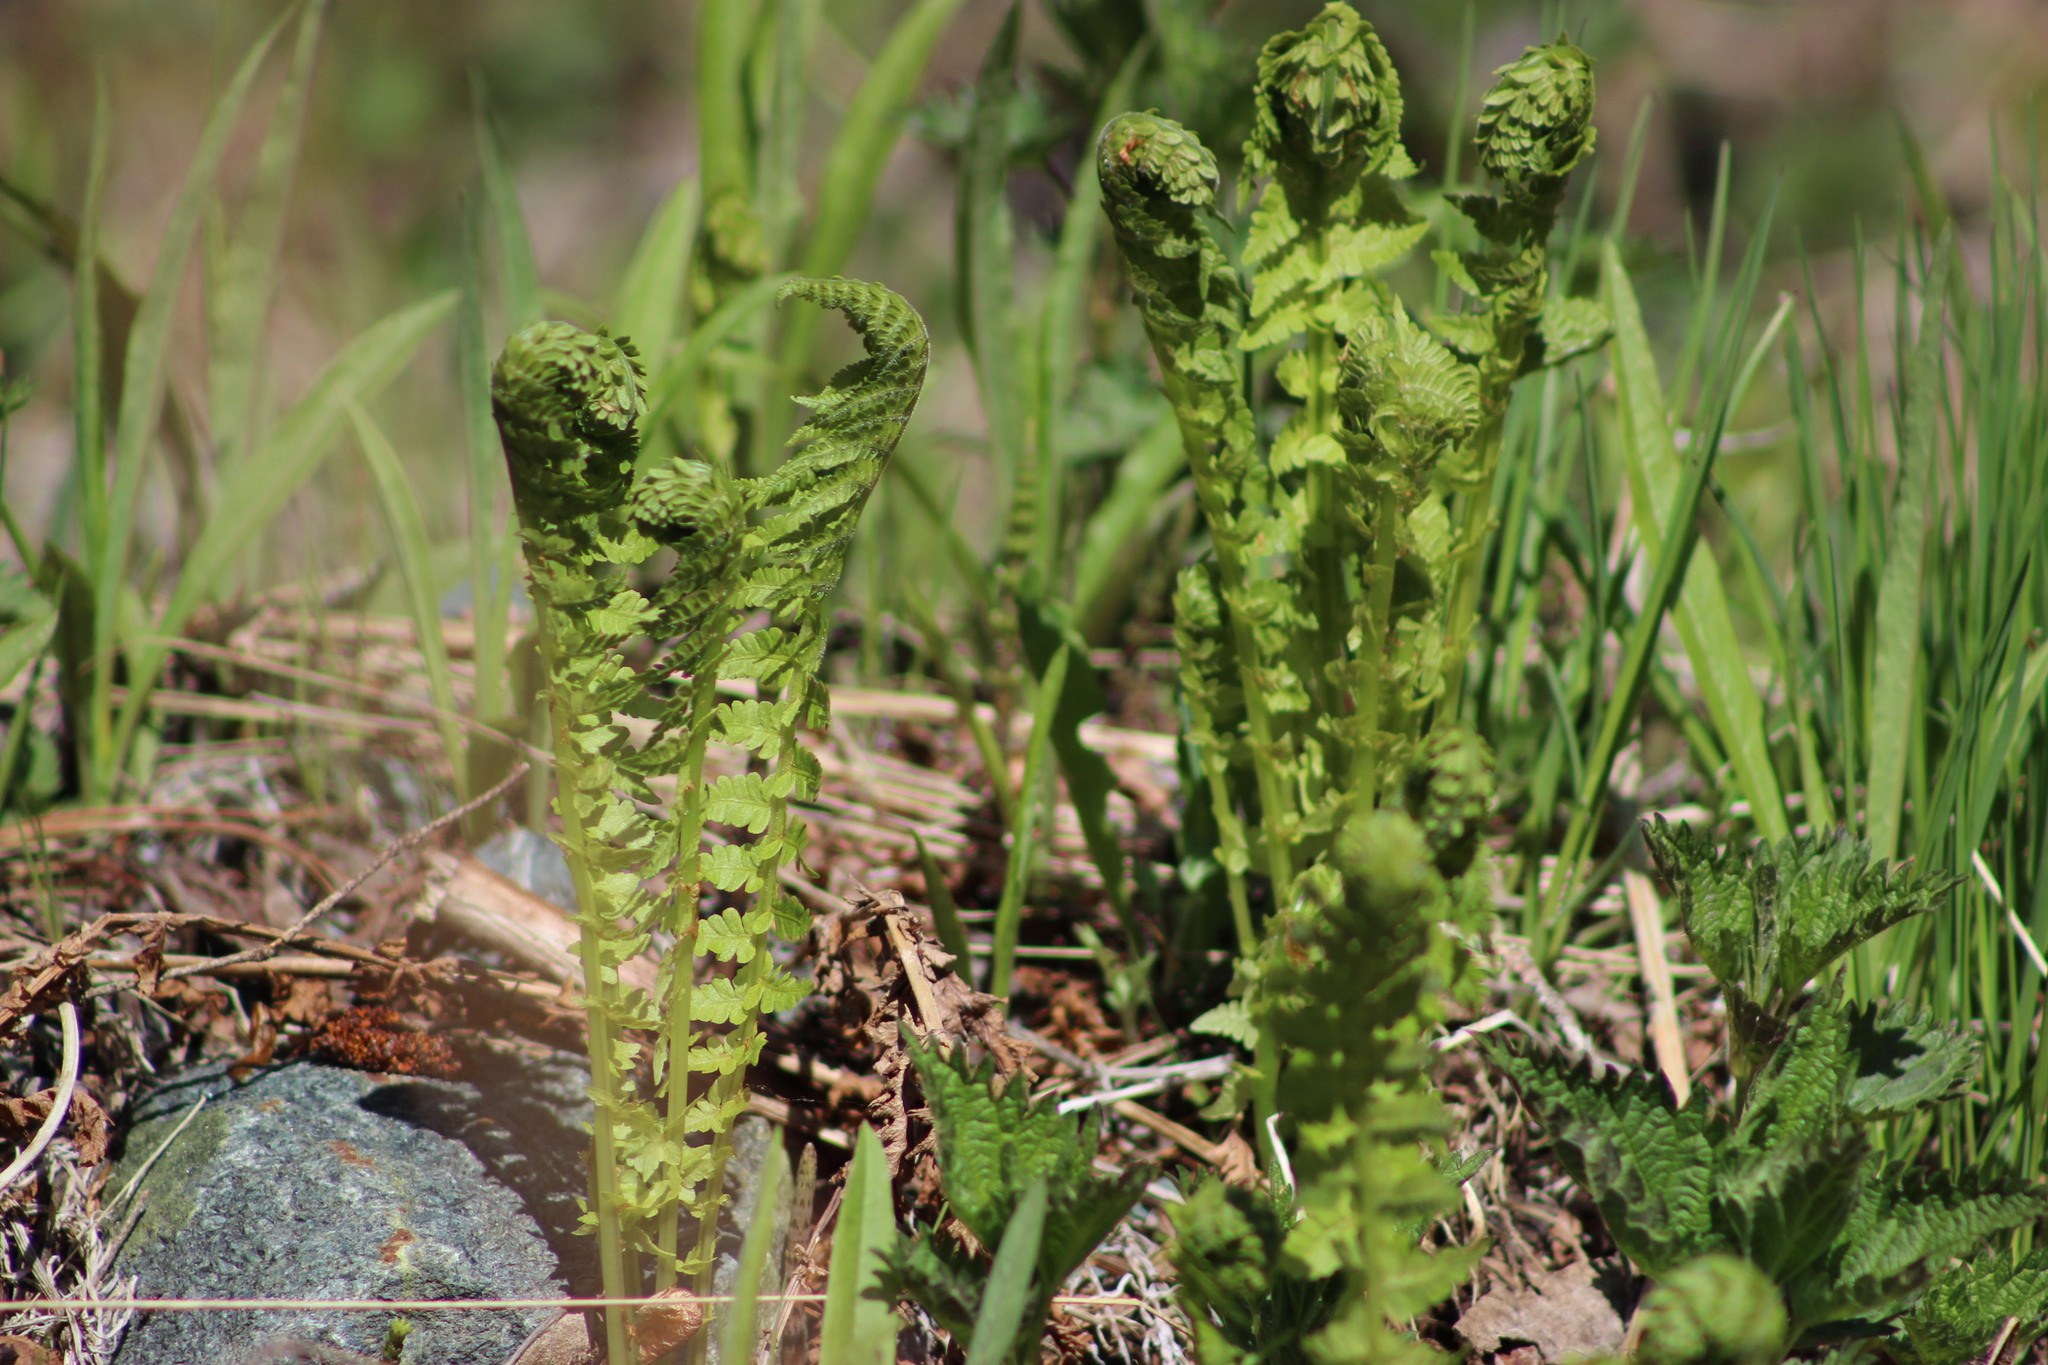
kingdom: Plantae
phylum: Tracheophyta
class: Polypodiopsida
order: Polypodiales
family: Onocleaceae
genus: Matteuccia
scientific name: Matteuccia struthiopteris
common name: Ostrich fern
